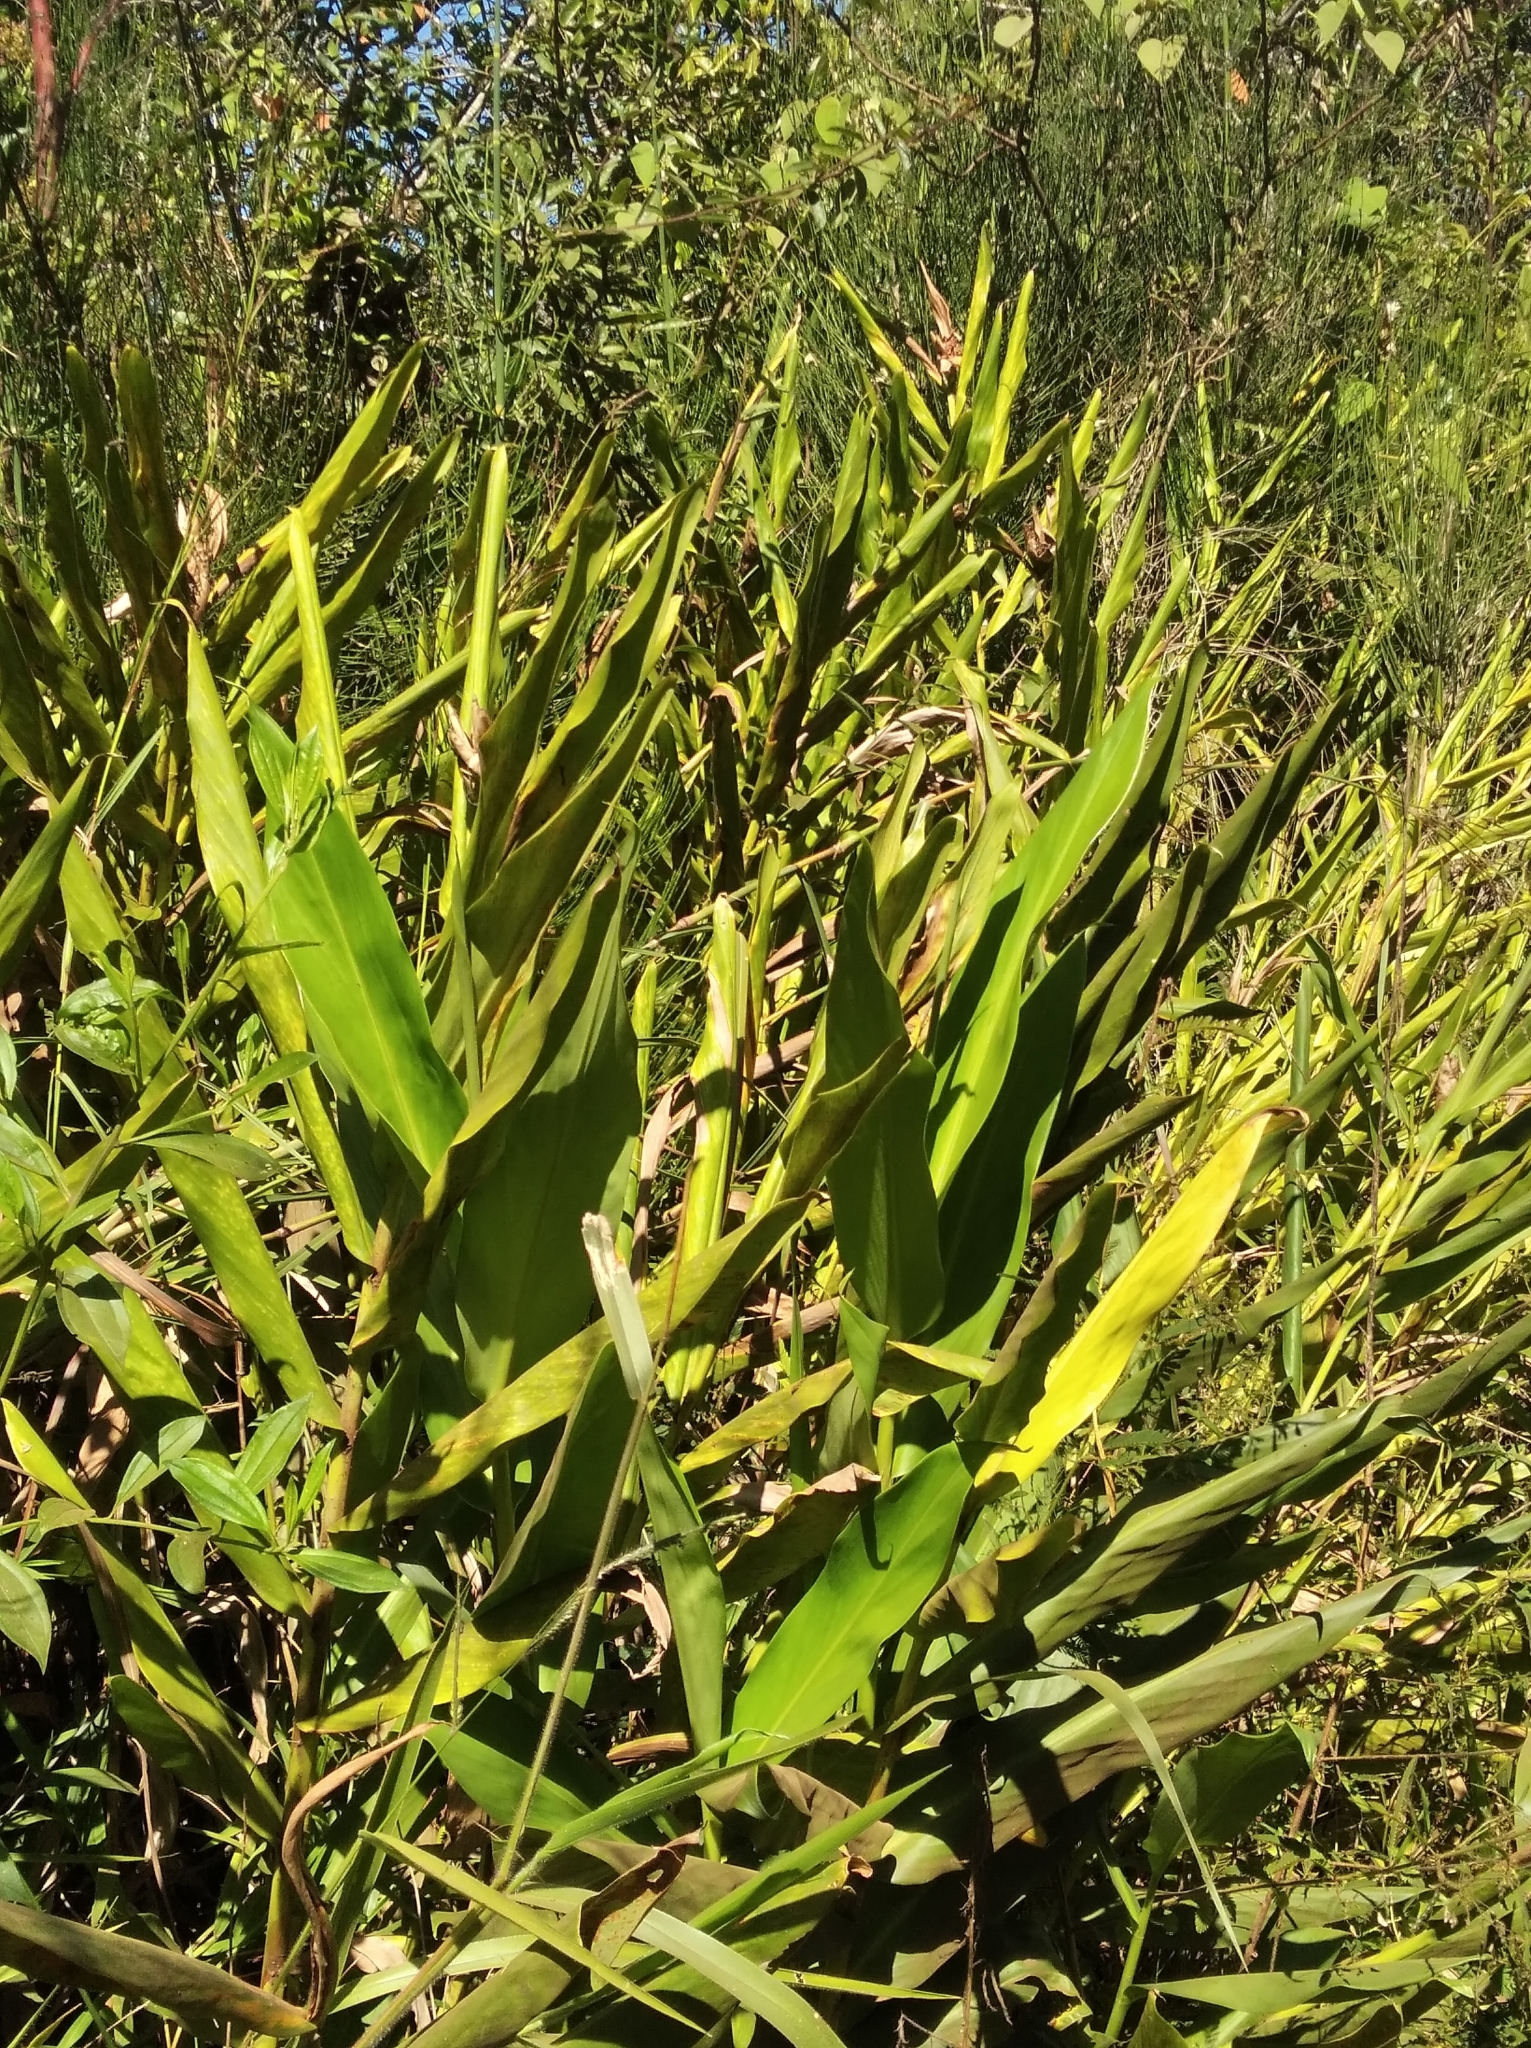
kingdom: Plantae
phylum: Tracheophyta
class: Liliopsida
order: Zingiberales
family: Zingiberaceae
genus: Hedychium
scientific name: Hedychium coronarium
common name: White garland-lily
